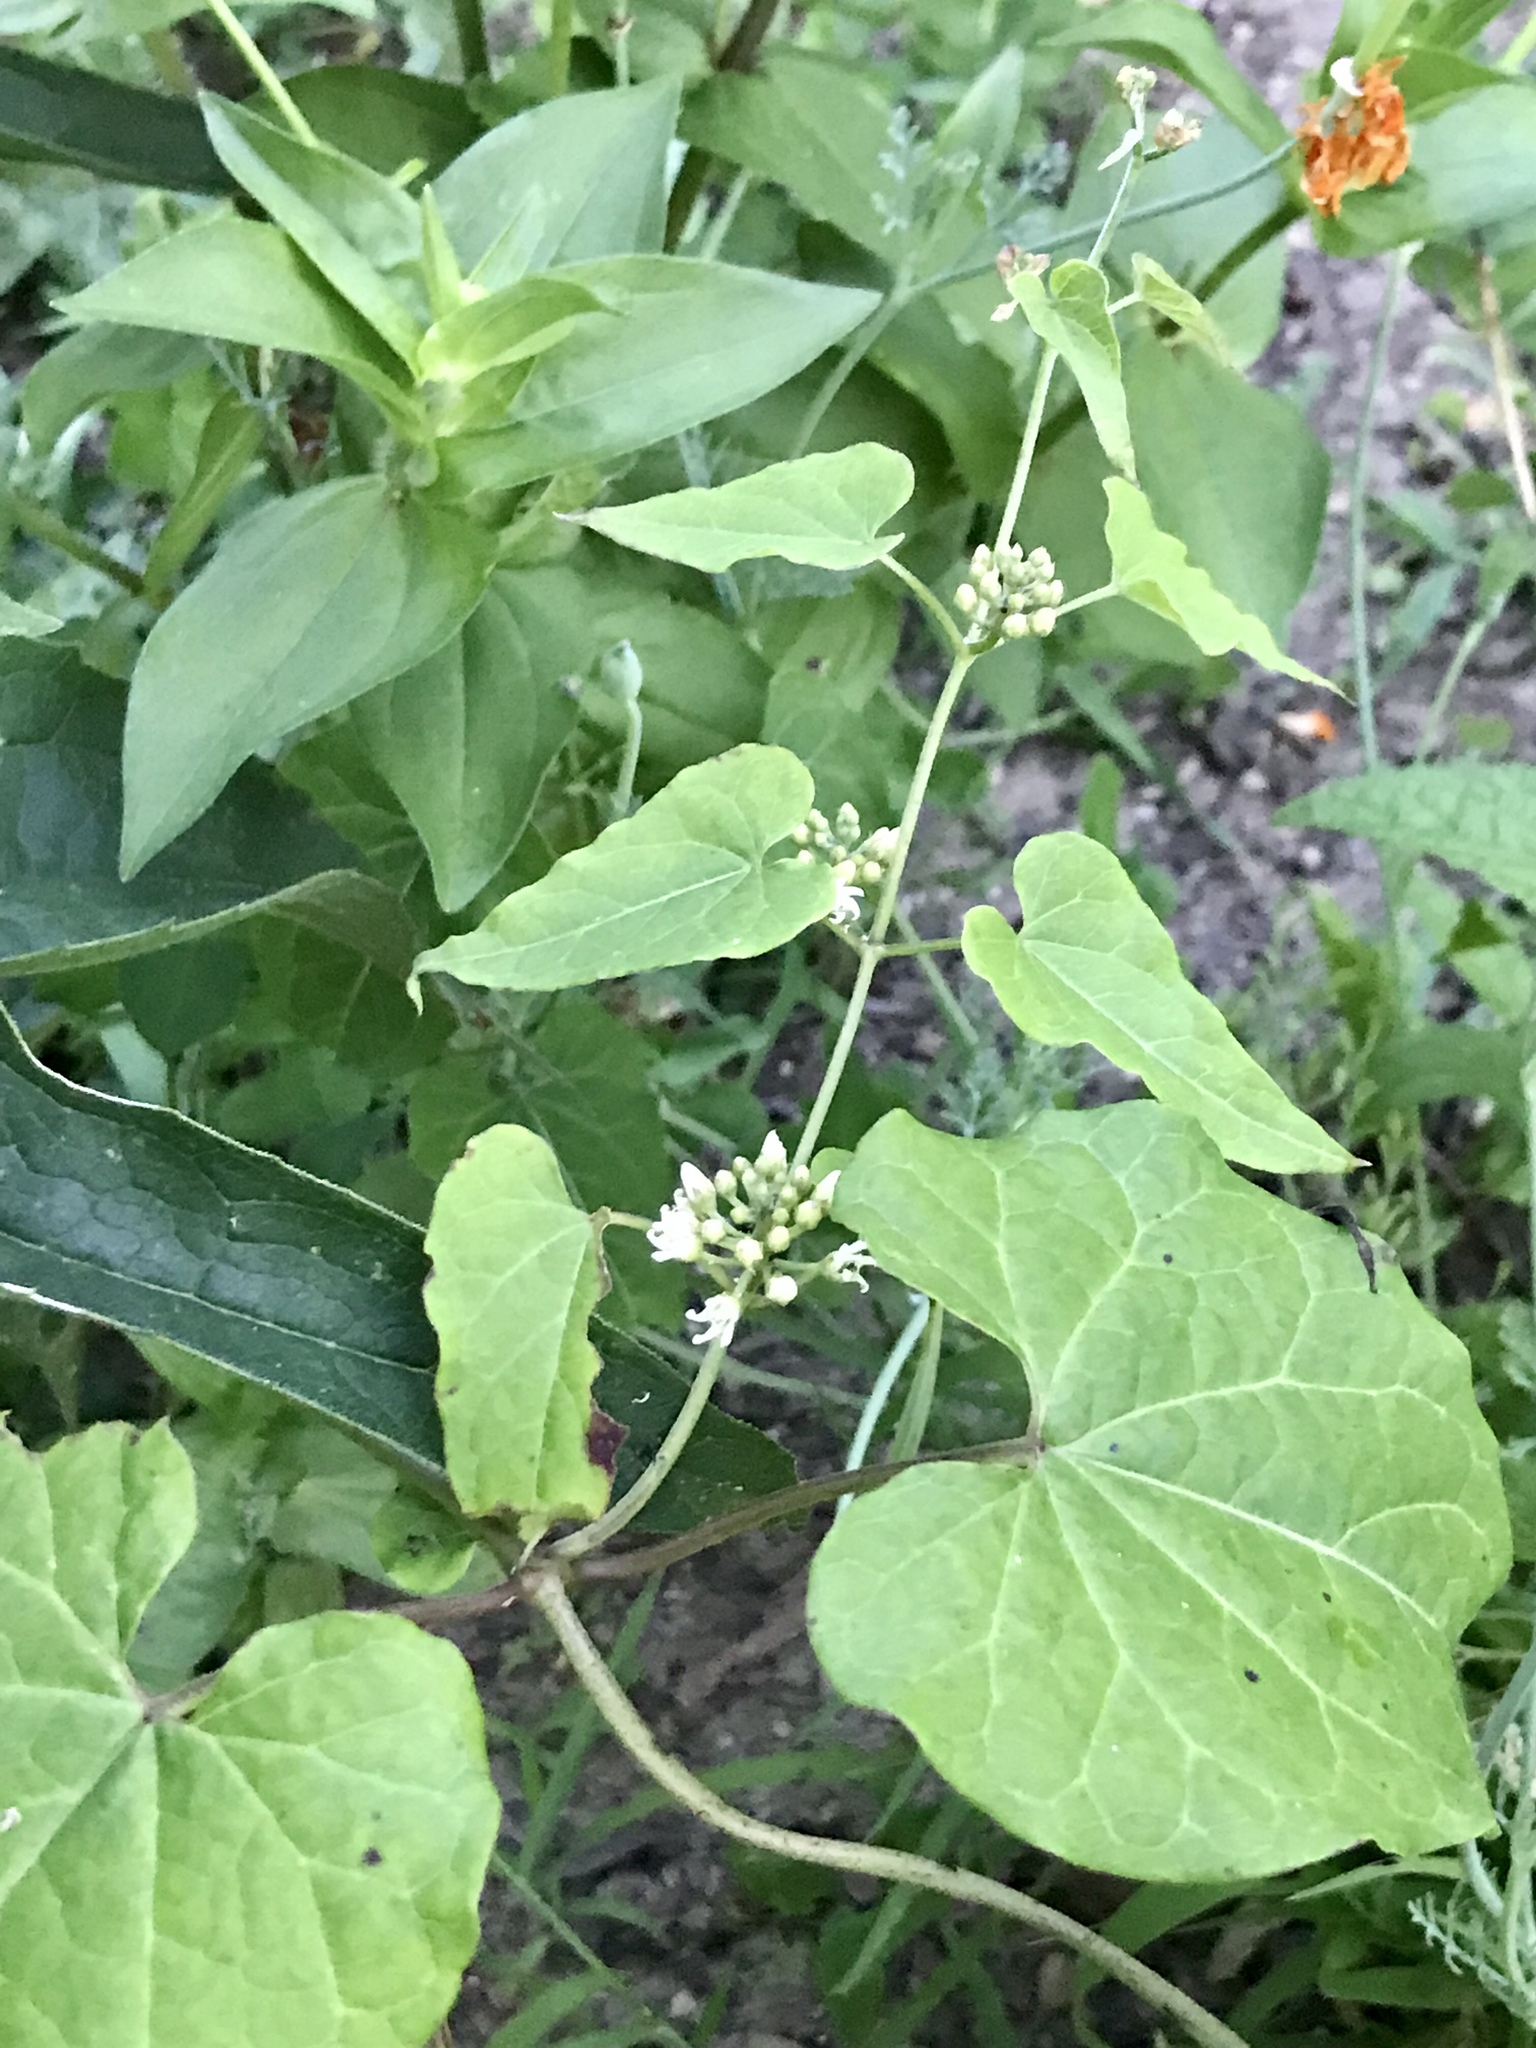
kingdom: Plantae
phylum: Tracheophyta
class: Magnoliopsida
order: Gentianales
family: Apocynaceae
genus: Cynanchum
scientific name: Cynanchum laeve
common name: Sandvine
